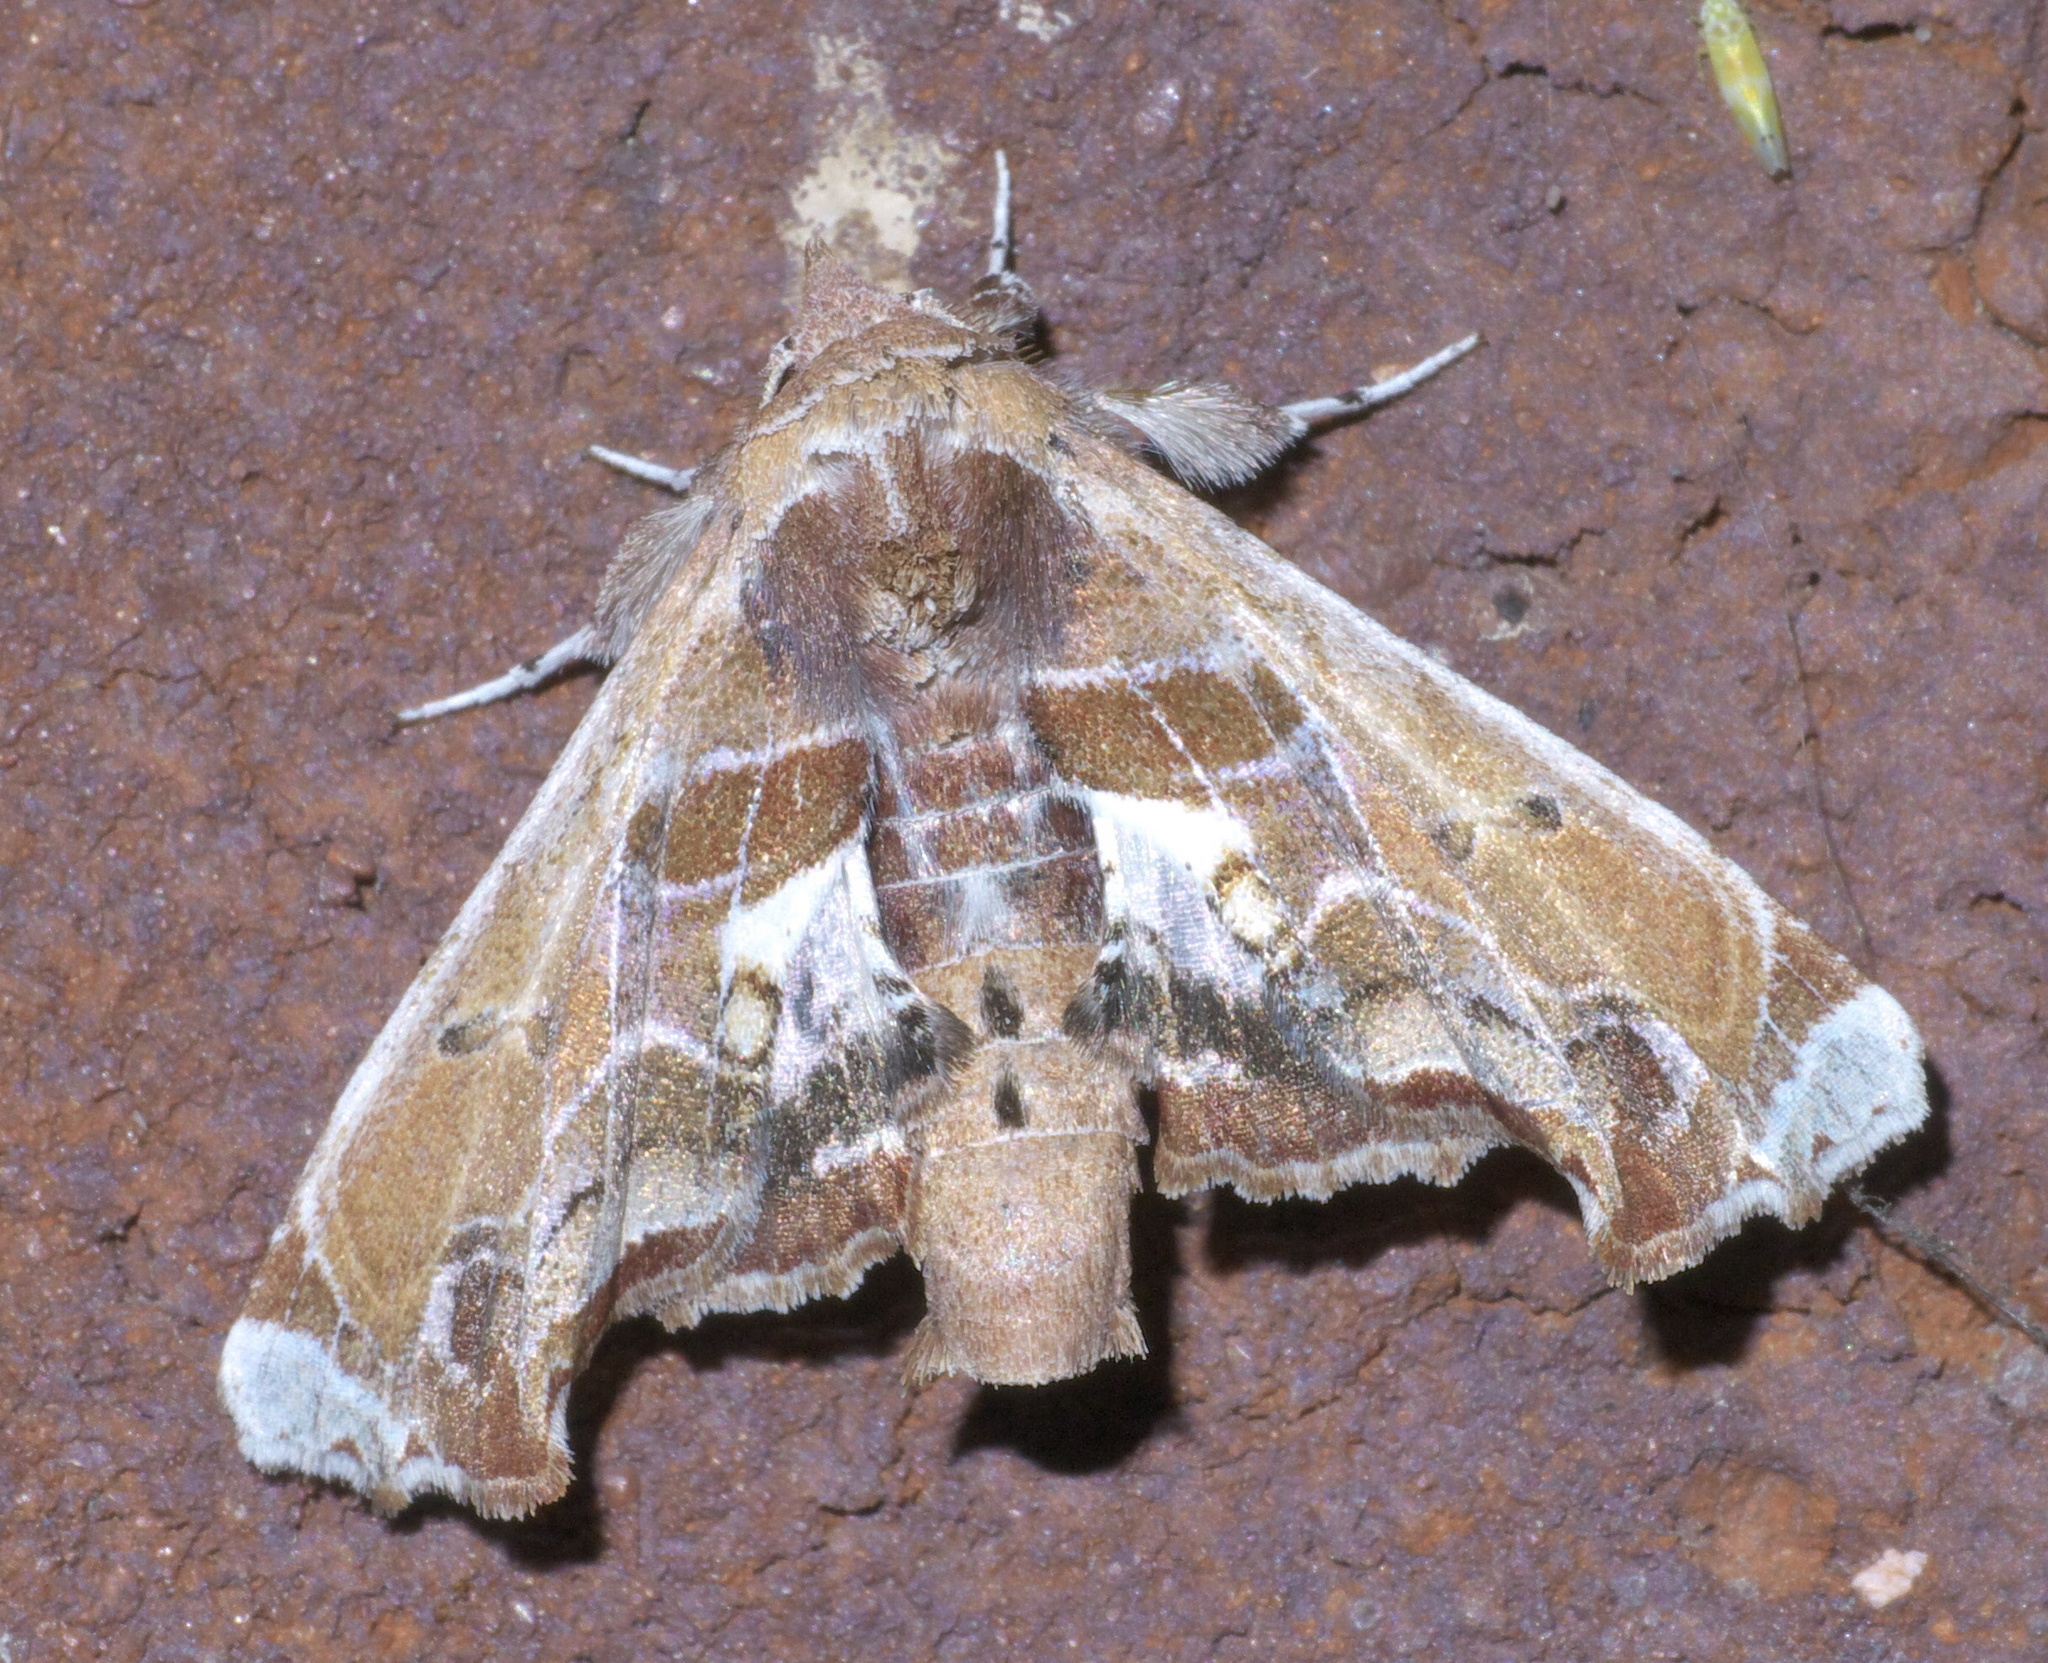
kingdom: Animalia
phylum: Arthropoda
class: Insecta
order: Lepidoptera
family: Euteliidae
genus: Eutelia
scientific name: Eutelia pulcherrimus
